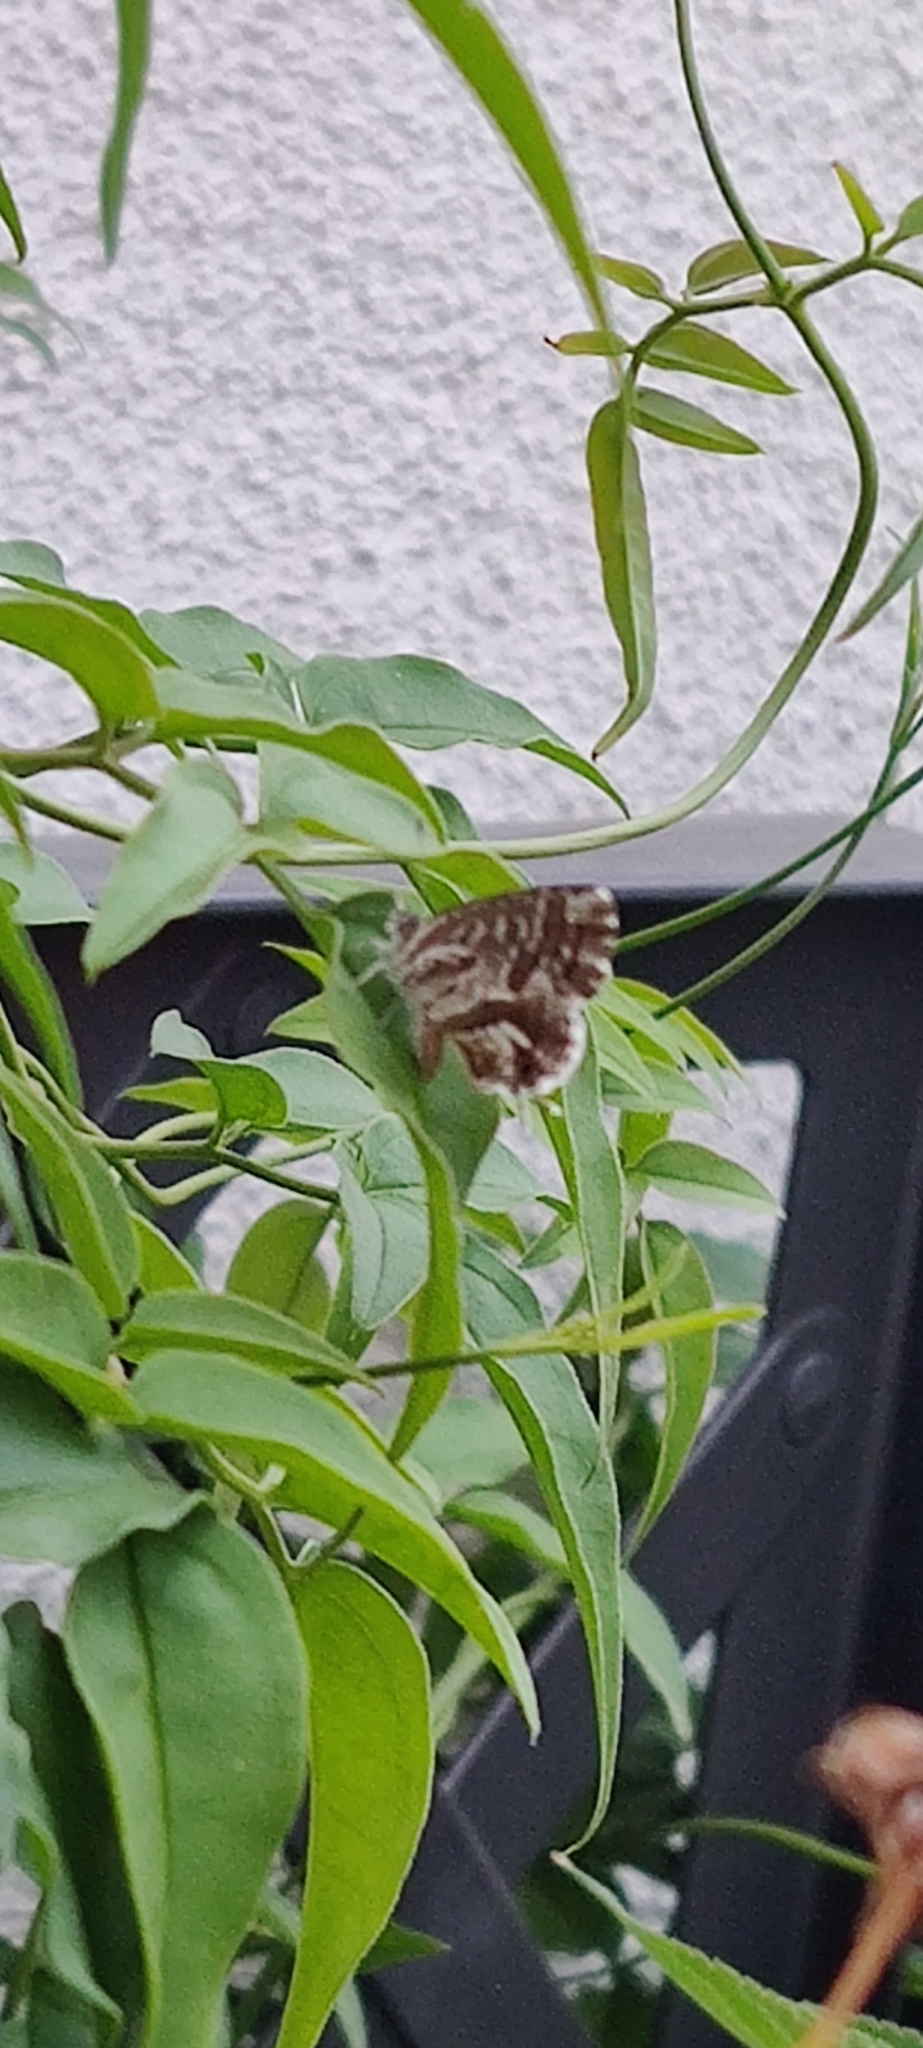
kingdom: Animalia
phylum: Arthropoda
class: Insecta
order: Lepidoptera
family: Lycaenidae
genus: Cacyreus
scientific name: Cacyreus marshalli
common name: Geranium bronze
